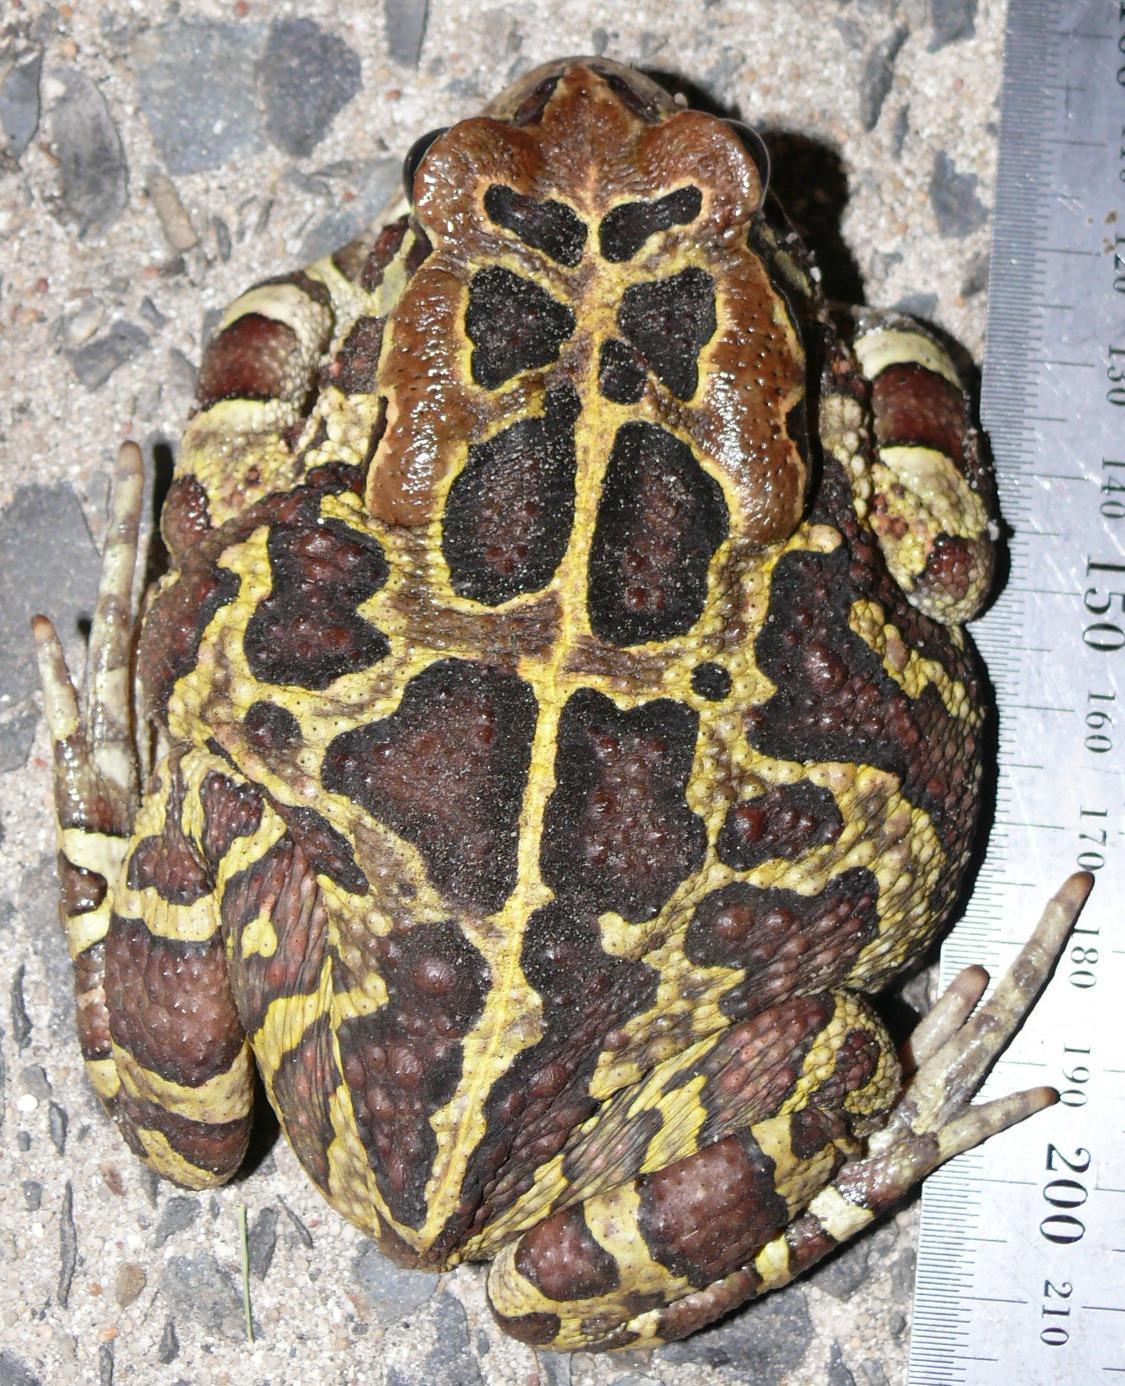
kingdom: Animalia
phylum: Chordata
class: Amphibia
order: Anura
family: Bufonidae
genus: Sclerophrys
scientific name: Sclerophrys pantherina
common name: Panther toad
